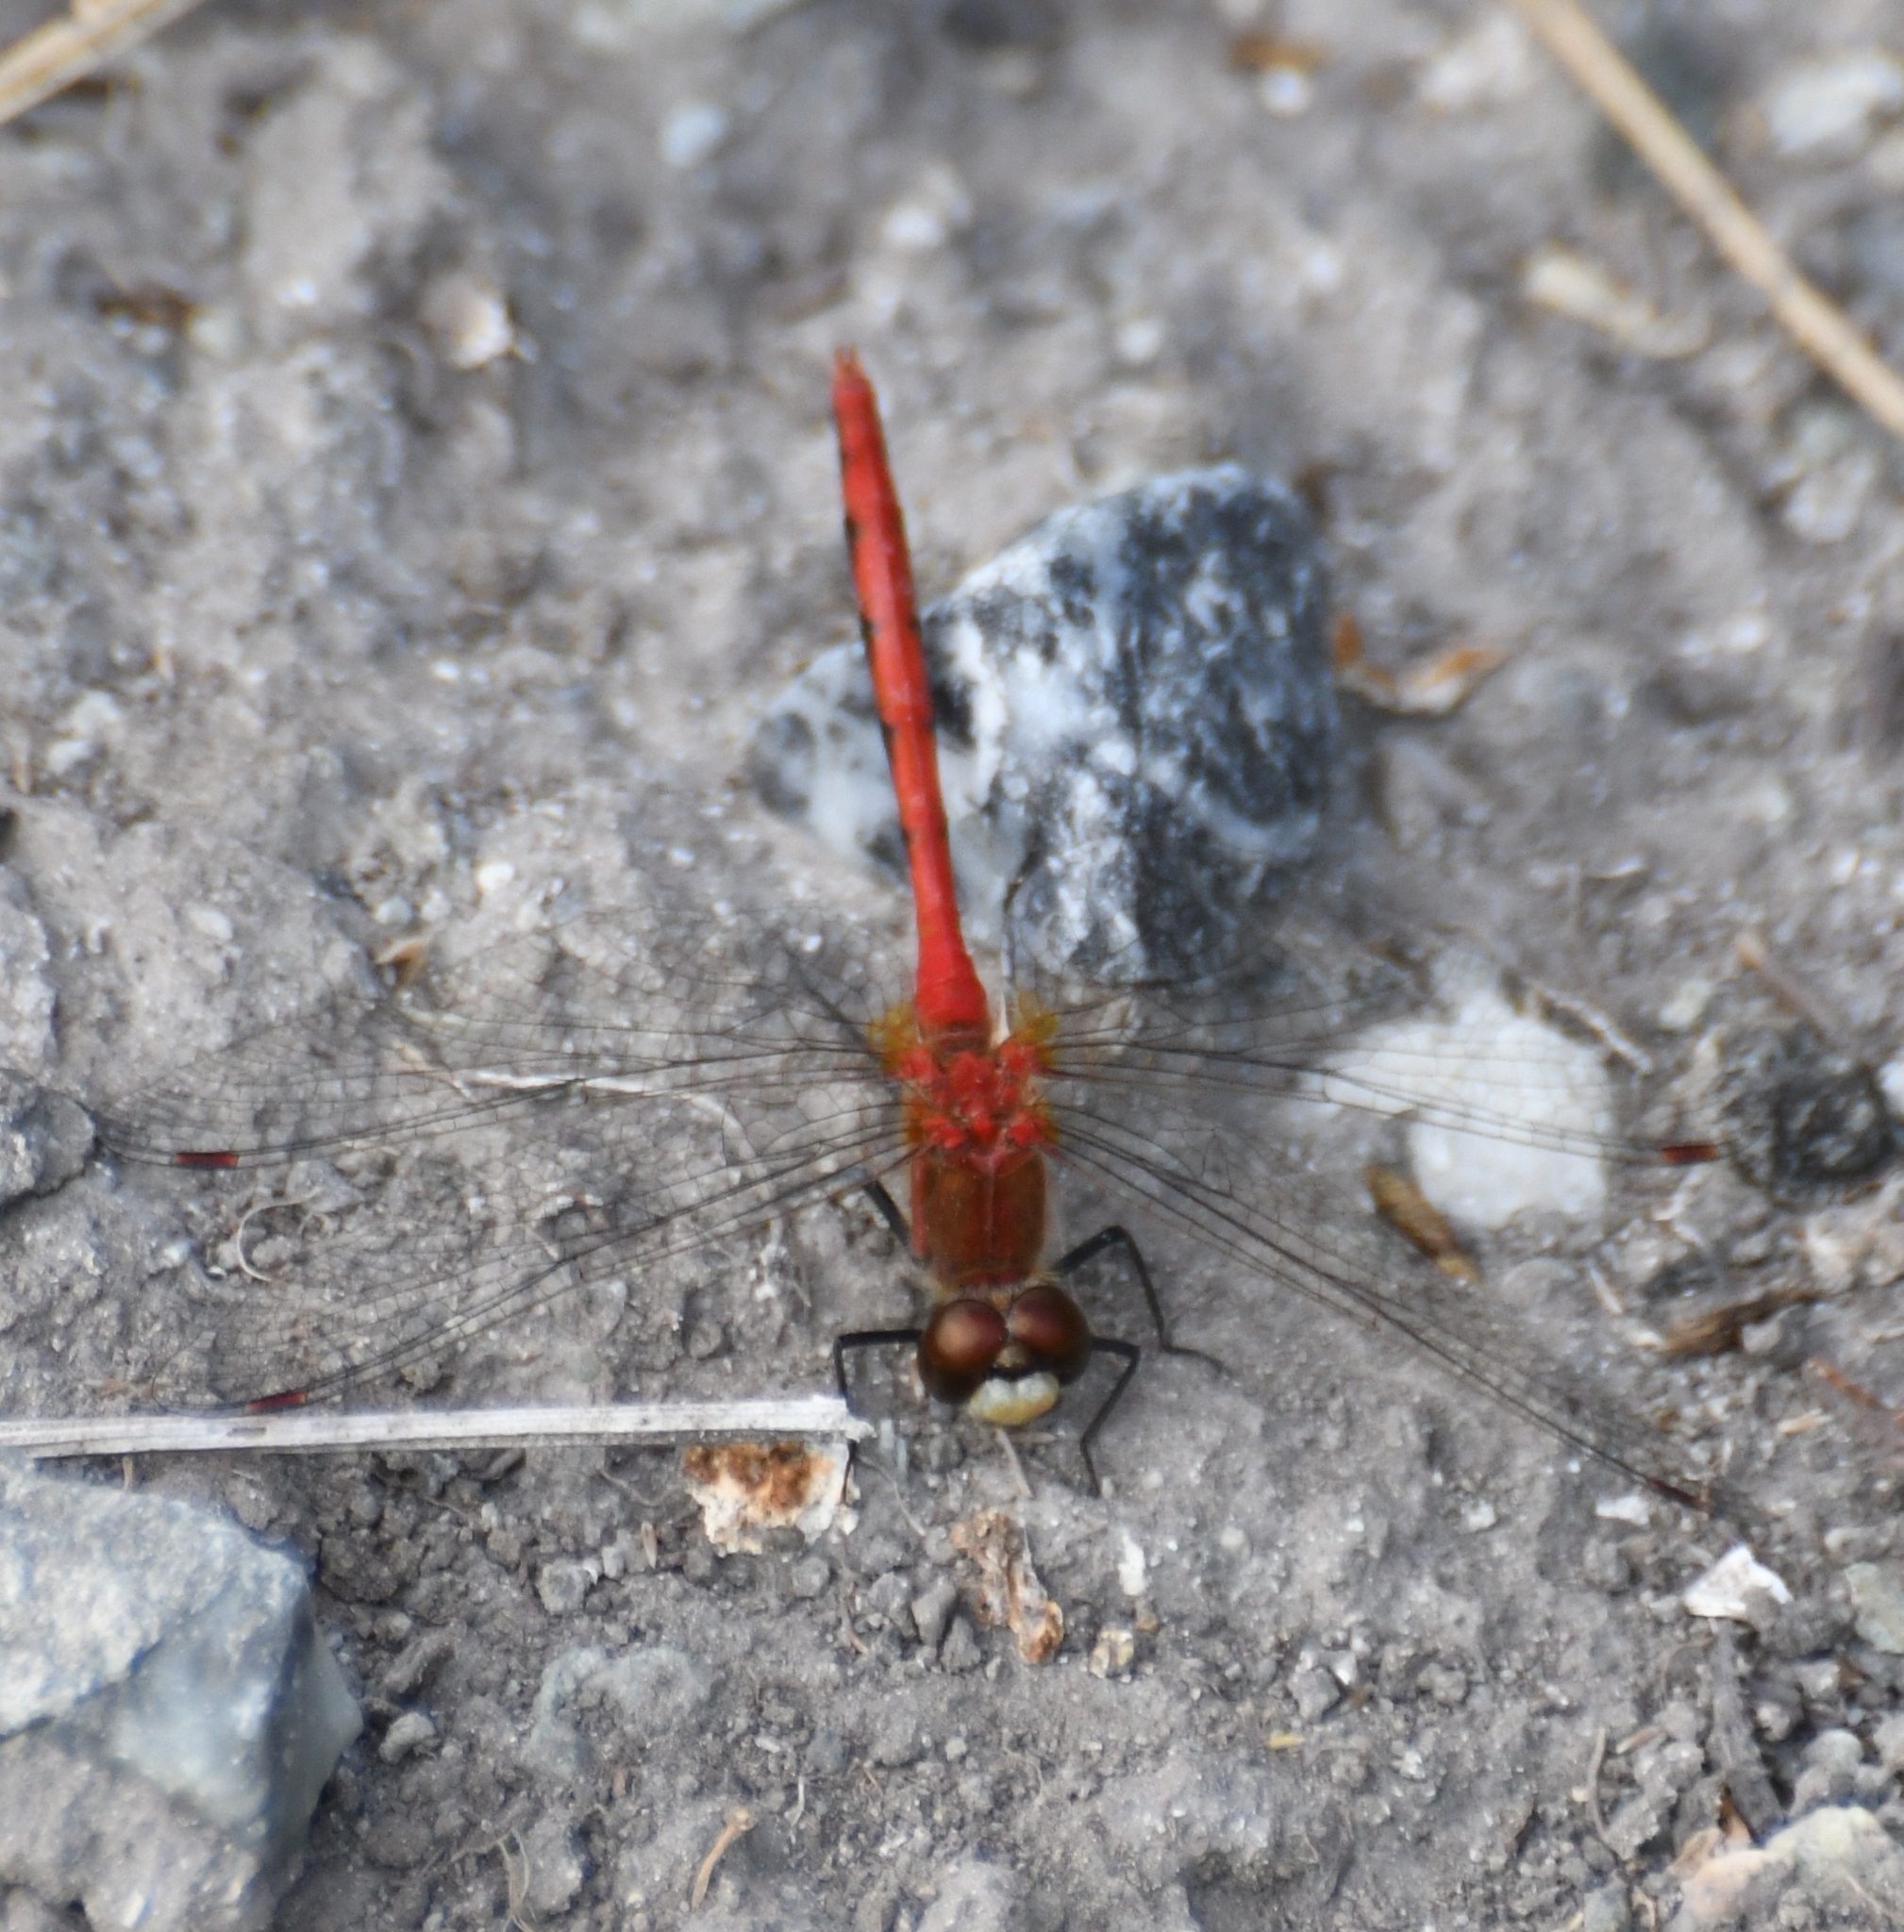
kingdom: Animalia
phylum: Arthropoda
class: Insecta
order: Odonata
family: Libellulidae
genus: Sympetrum
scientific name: Sympetrum obtrusum
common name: White-faced meadowhawk
